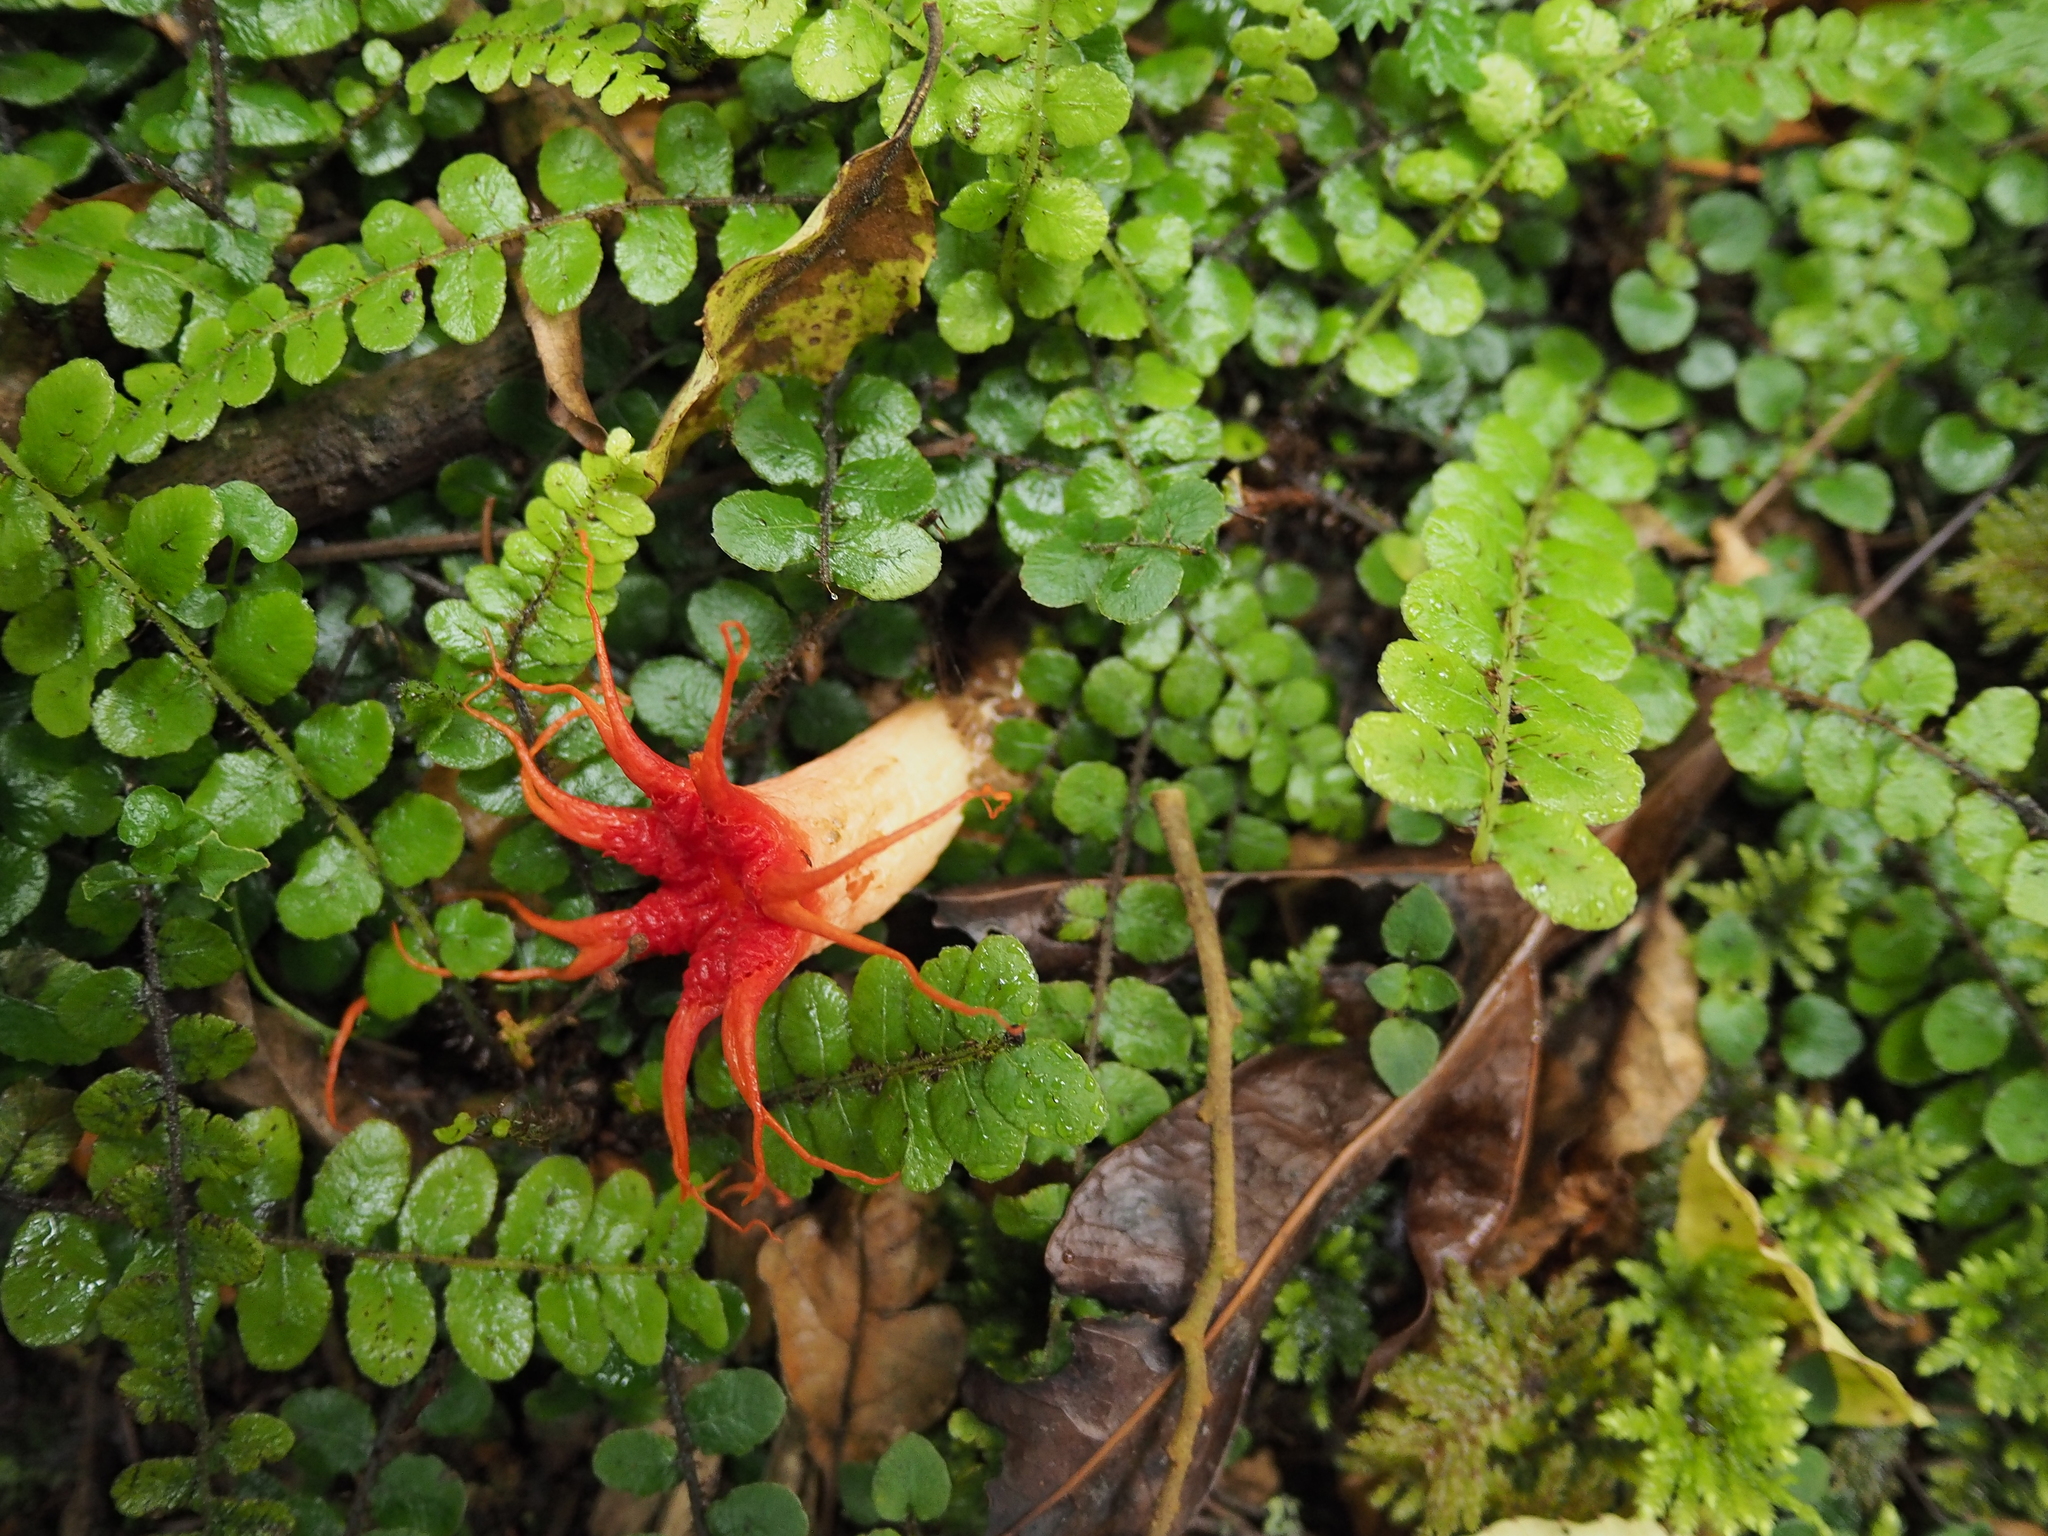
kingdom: Fungi
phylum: Basidiomycota
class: Agaricomycetes
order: Phallales
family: Phallaceae
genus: Aseroe
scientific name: Aseroe rubra
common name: Starfish fungus
